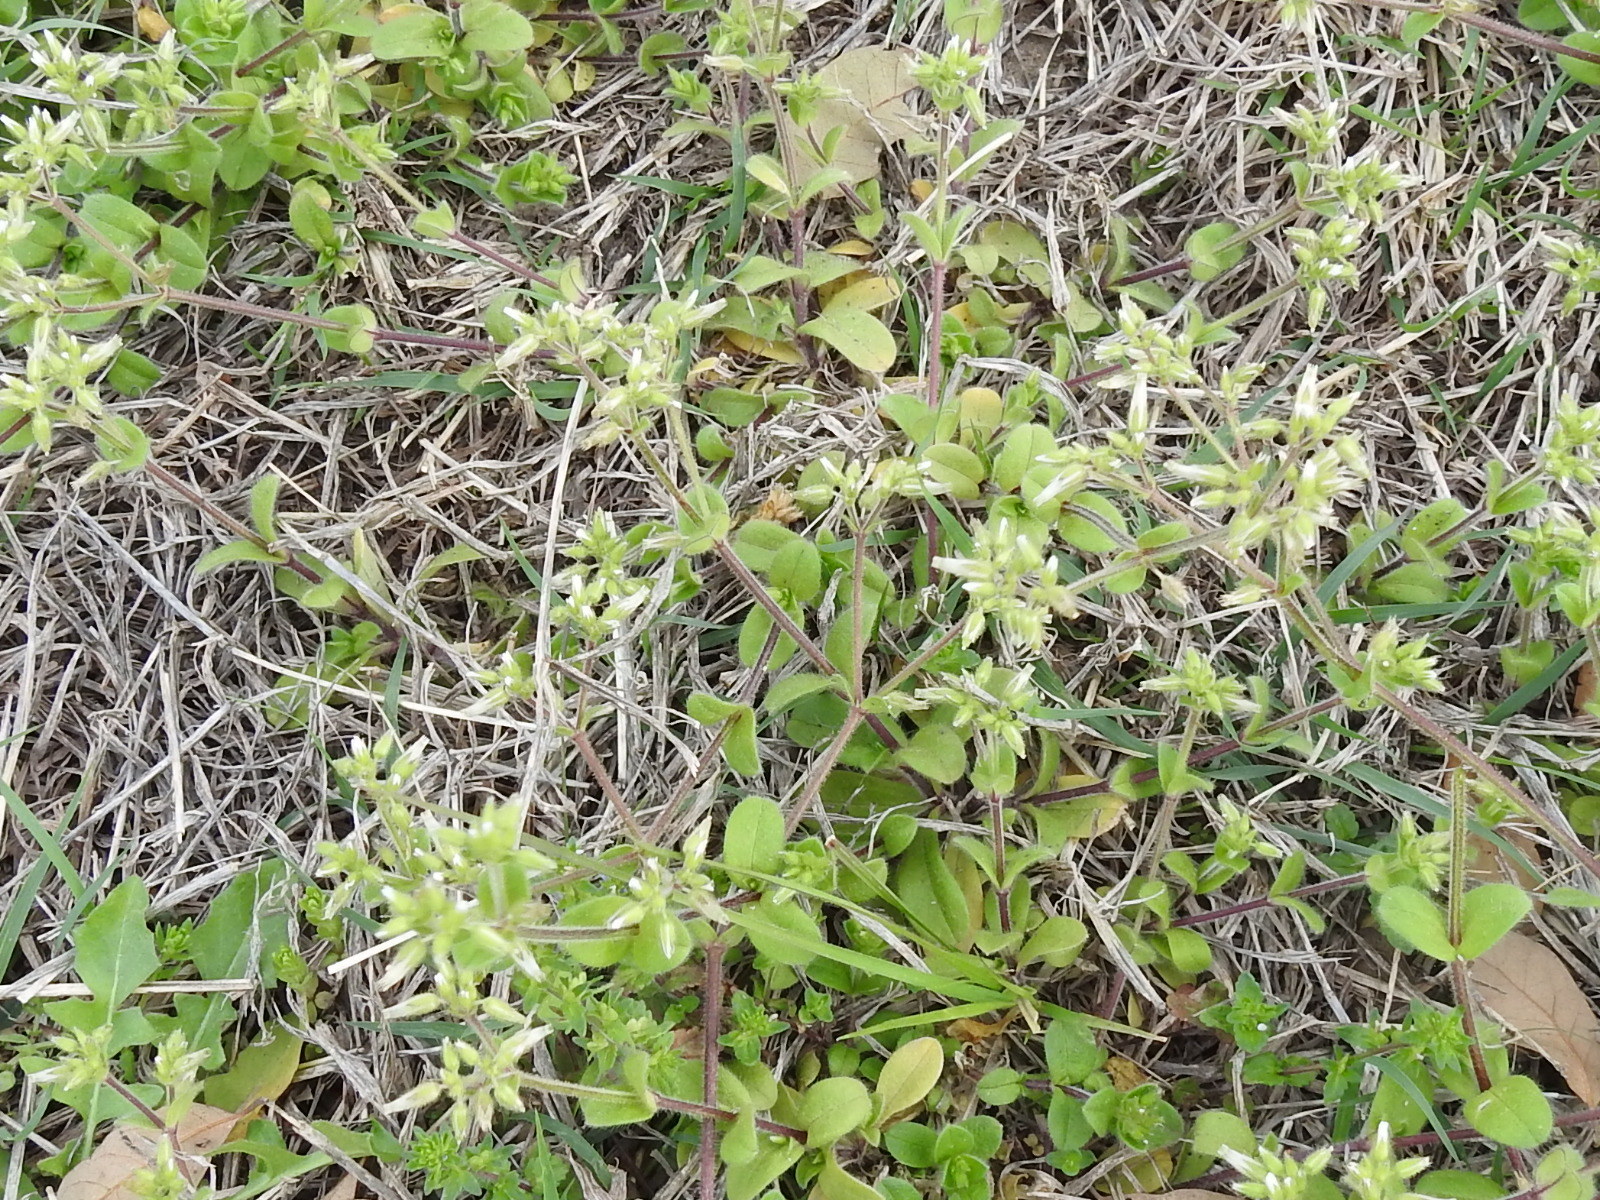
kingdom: Plantae
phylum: Tracheophyta
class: Magnoliopsida
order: Caryophyllales
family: Caryophyllaceae
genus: Cerastium
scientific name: Cerastium glomeratum
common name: Sticky chickweed
